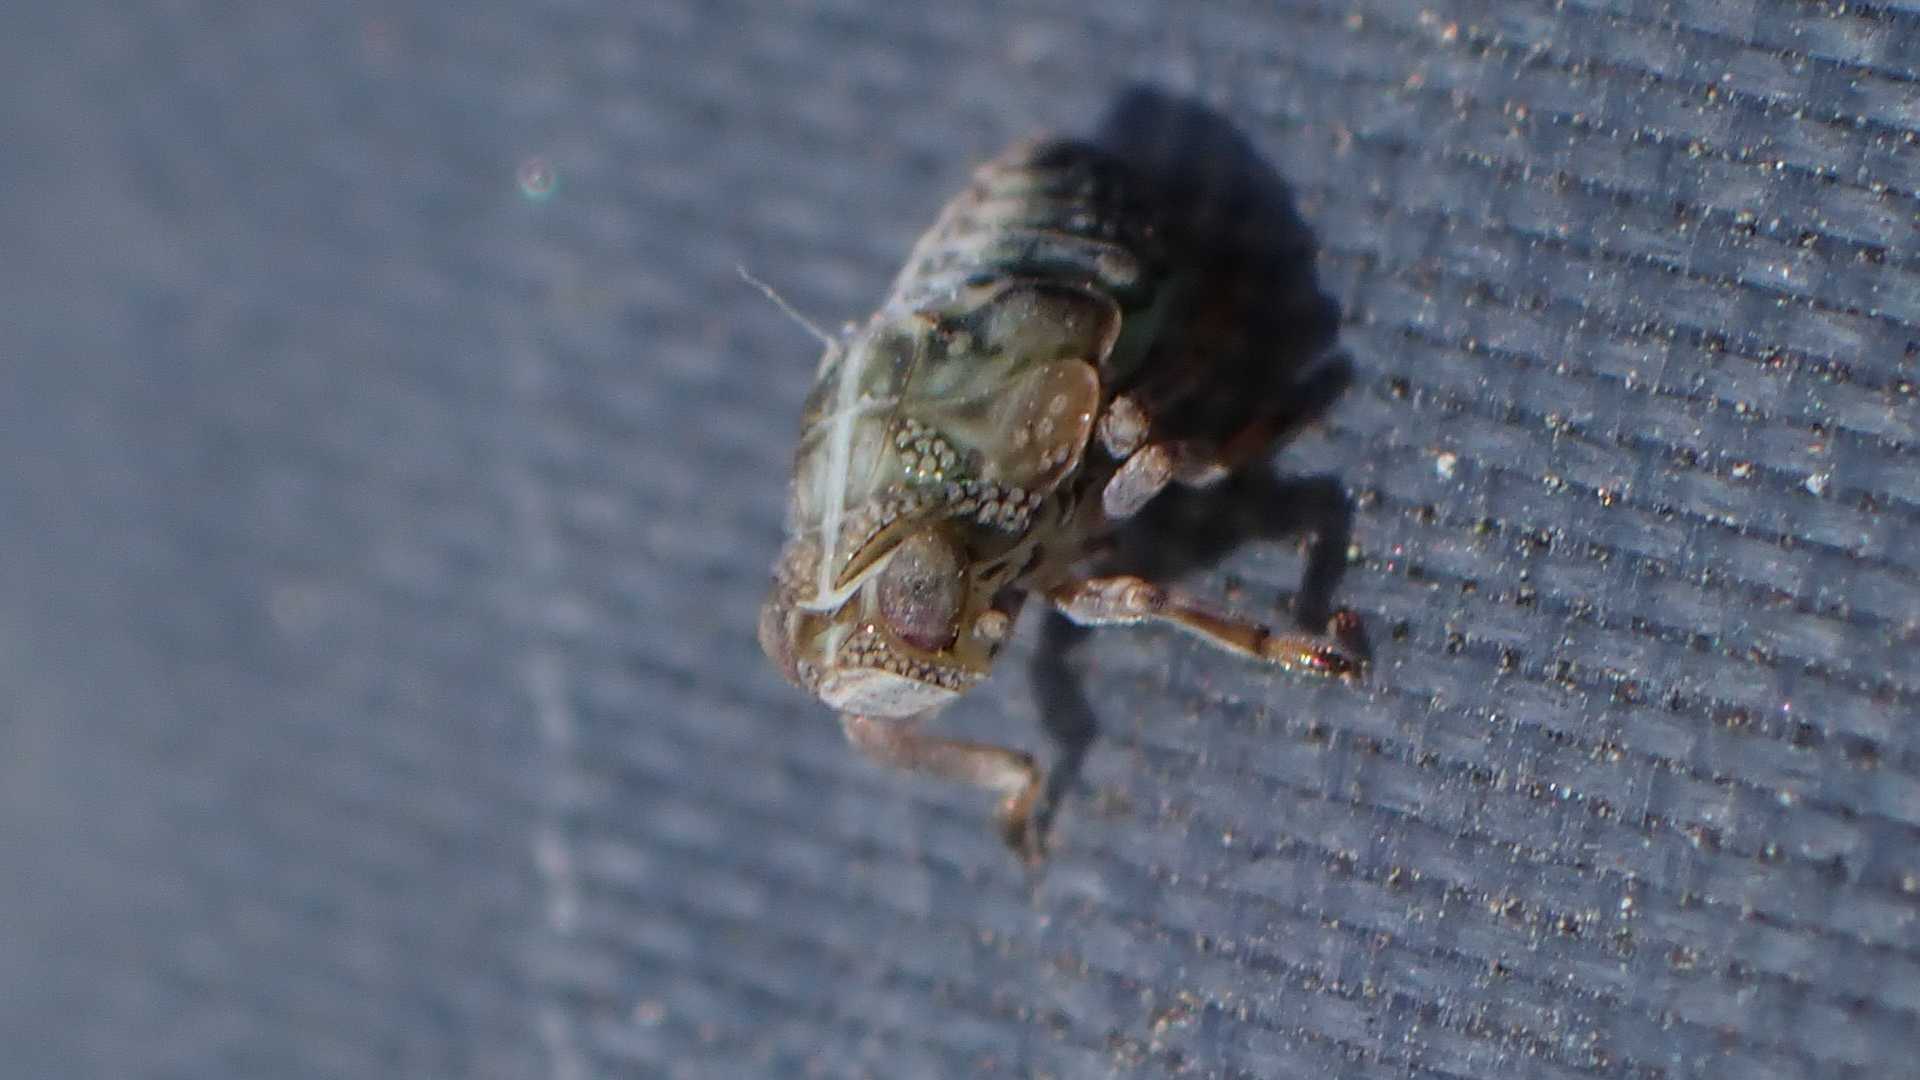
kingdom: Animalia
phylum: Arthropoda
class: Insecta
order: Hemiptera
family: Issidae
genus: Issus
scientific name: Issus coleoptratus
